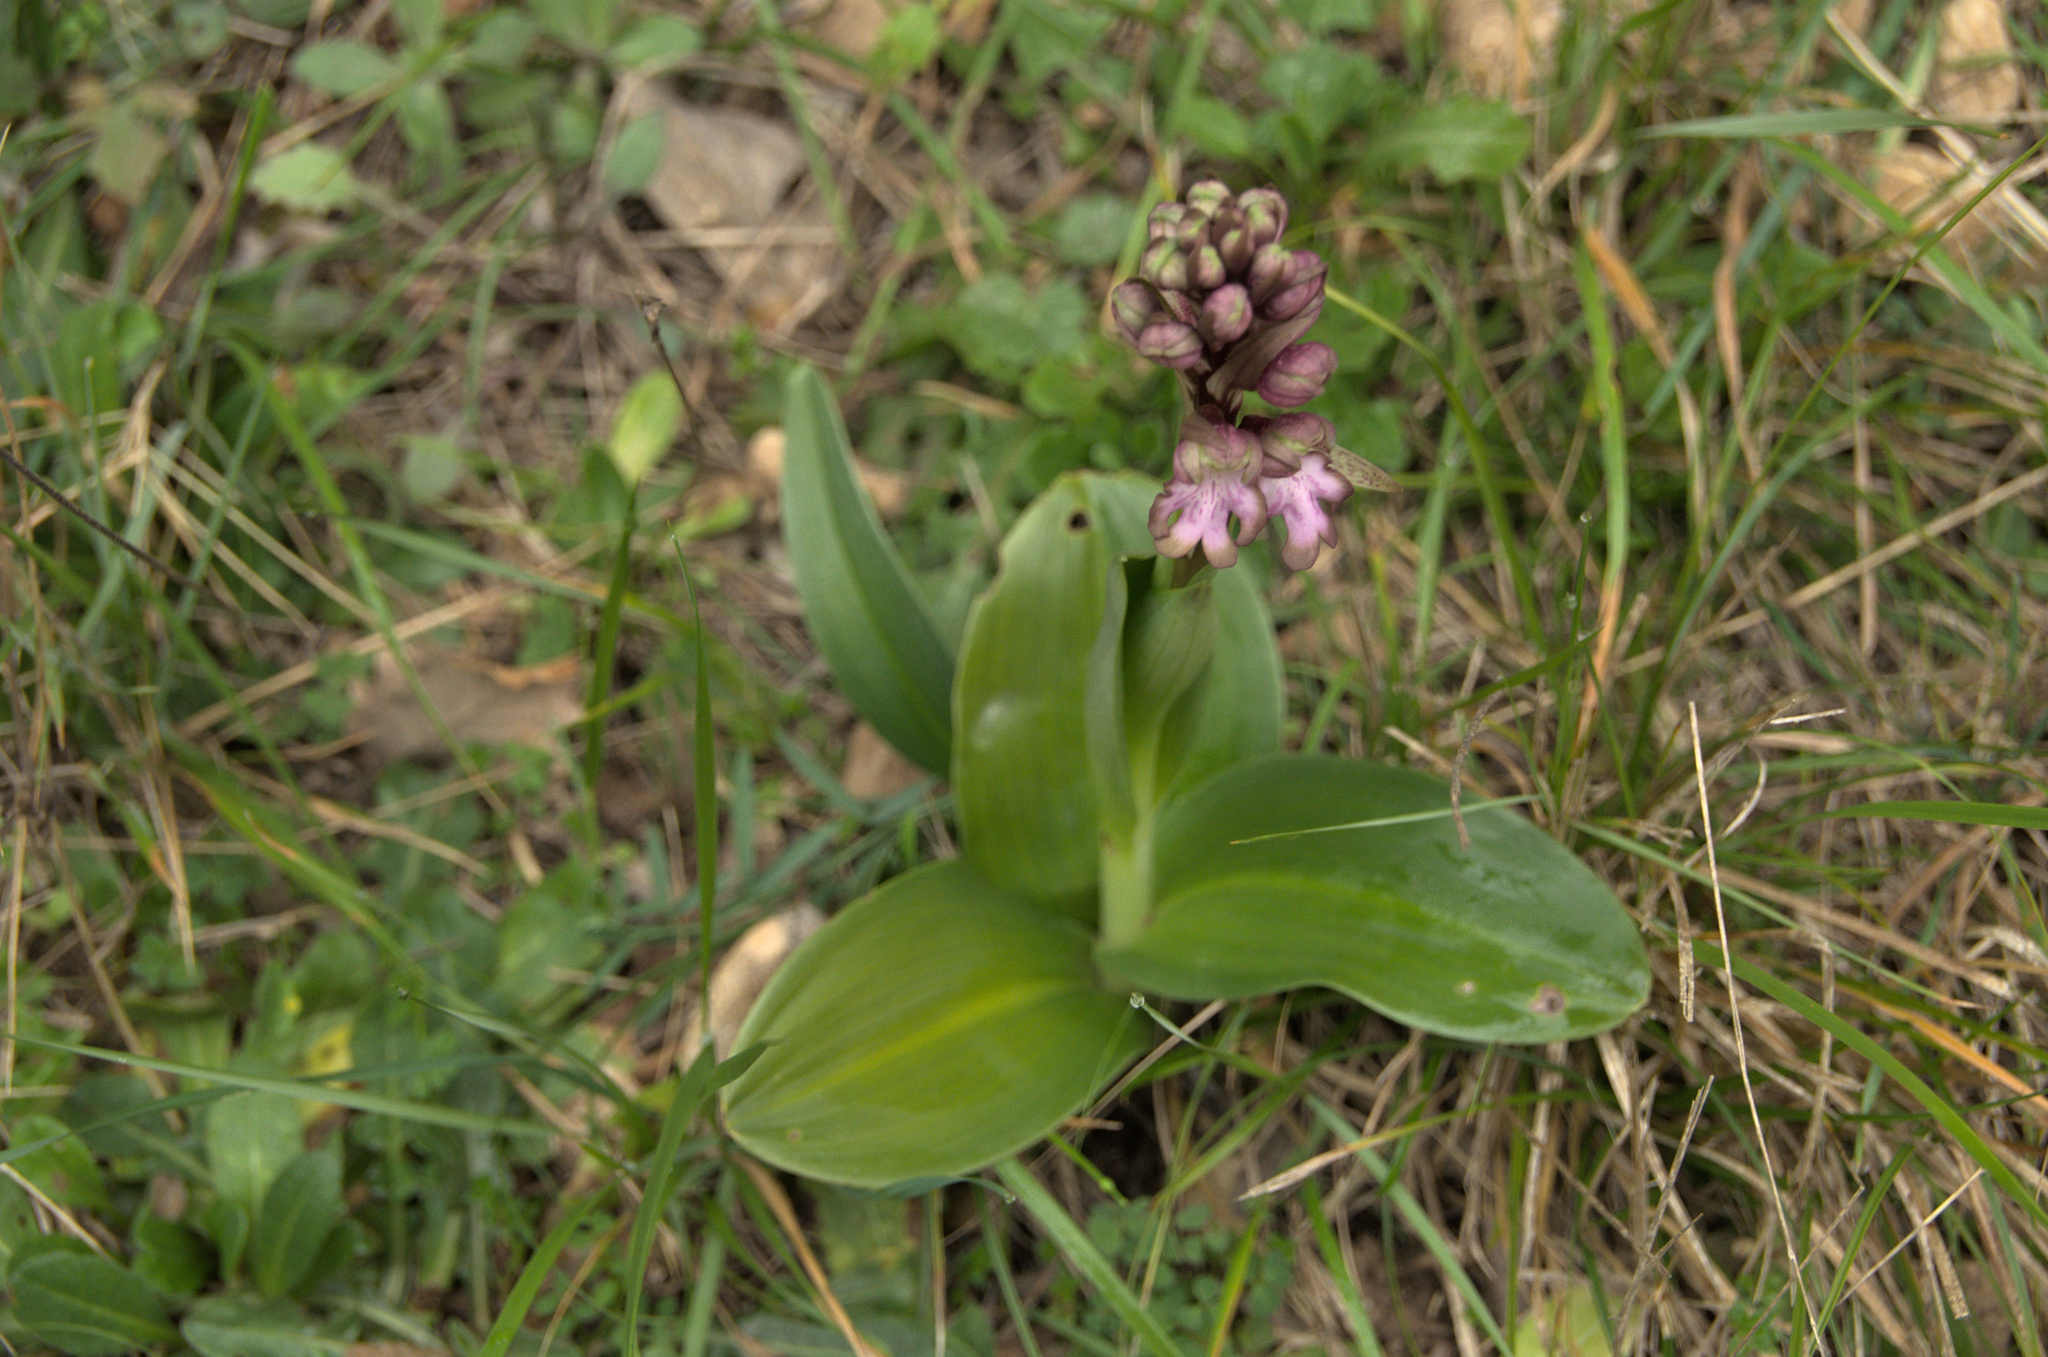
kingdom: Plantae
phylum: Tracheophyta
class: Liliopsida
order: Asparagales
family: Orchidaceae
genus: Himantoglossum
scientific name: Himantoglossum robertianum
